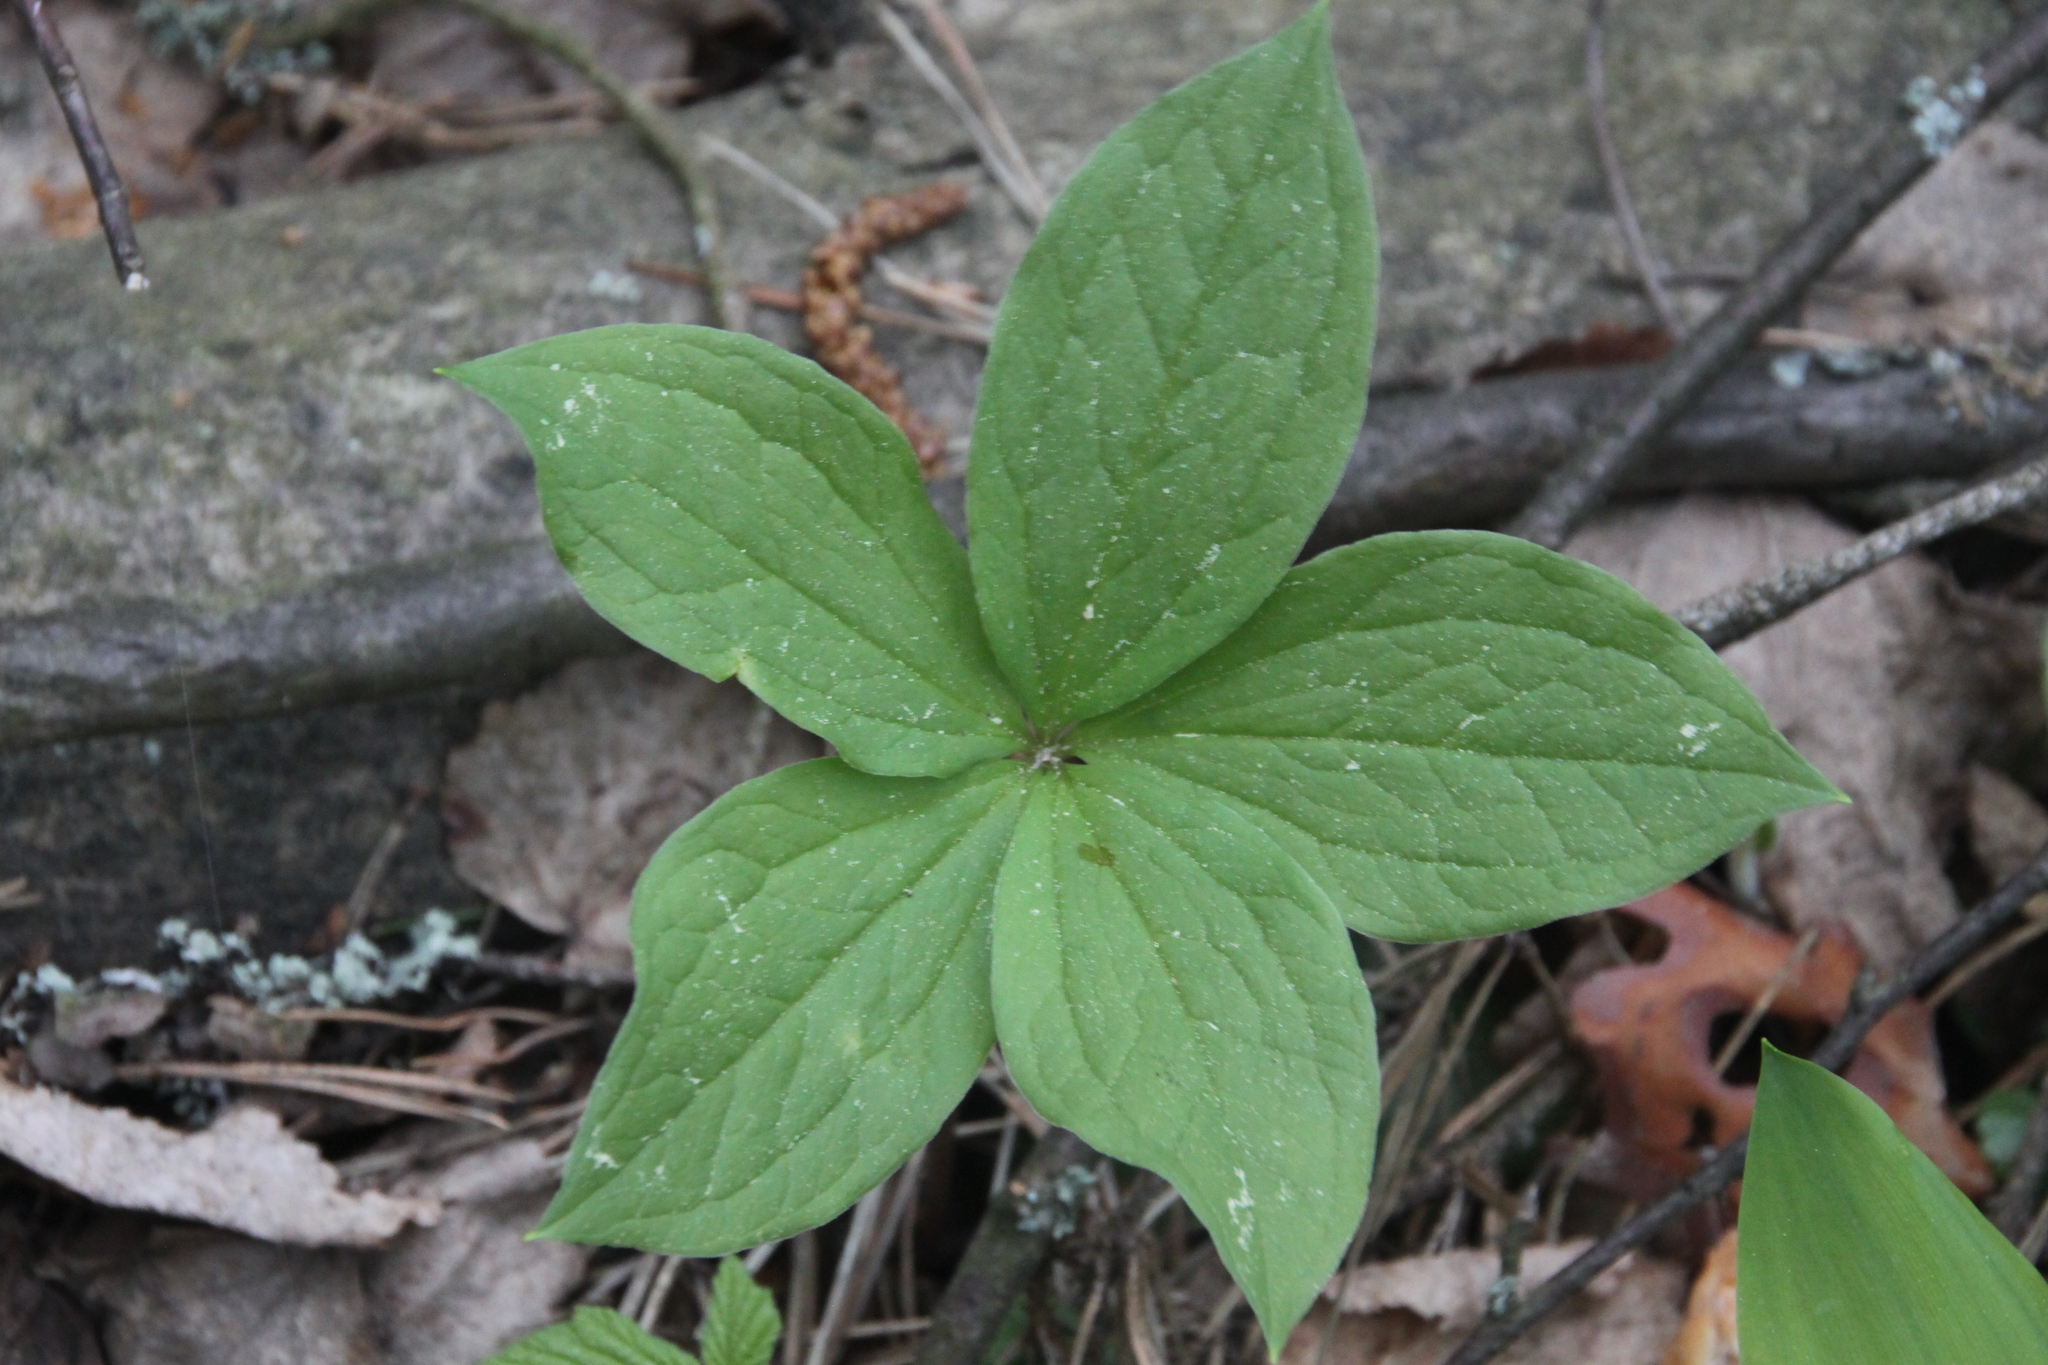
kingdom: Plantae
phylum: Tracheophyta
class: Liliopsida
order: Liliales
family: Melanthiaceae
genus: Paris
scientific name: Paris quadrifolia
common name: Herb-paris
